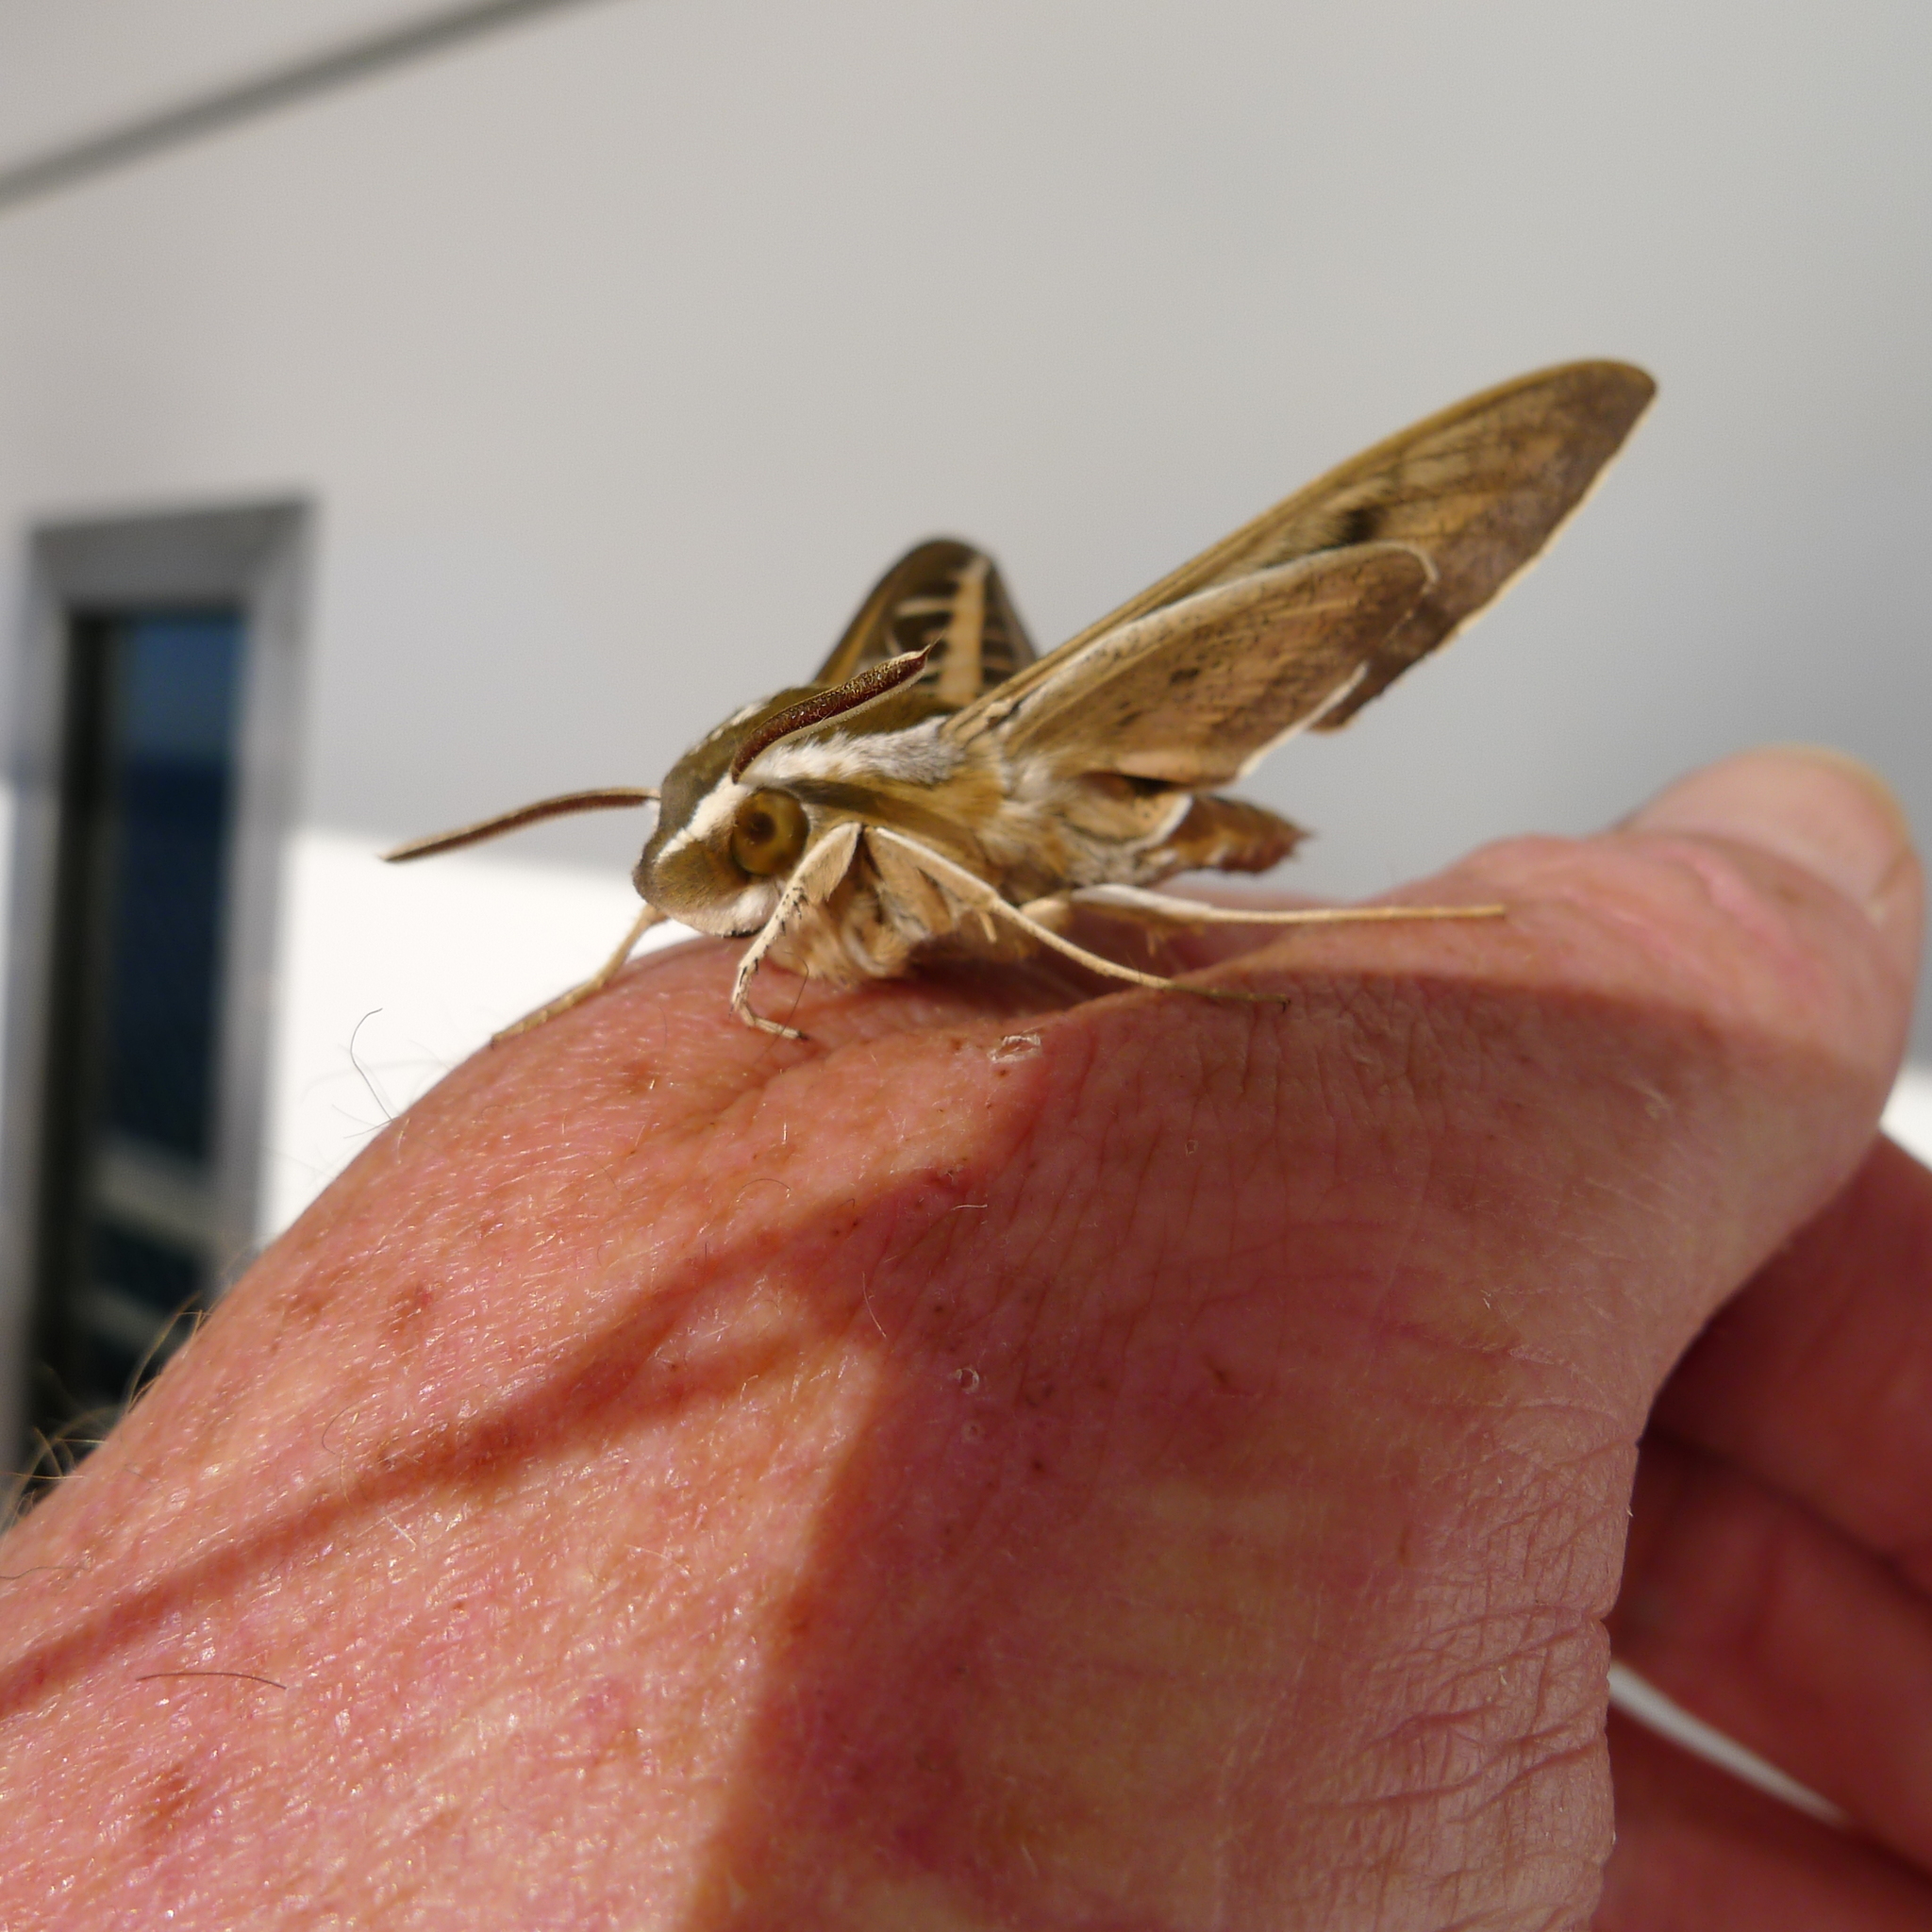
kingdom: Animalia
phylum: Arthropoda
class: Insecta
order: Lepidoptera
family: Sphingidae
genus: Hyles
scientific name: Hyles lineata
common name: White-lined sphinx
